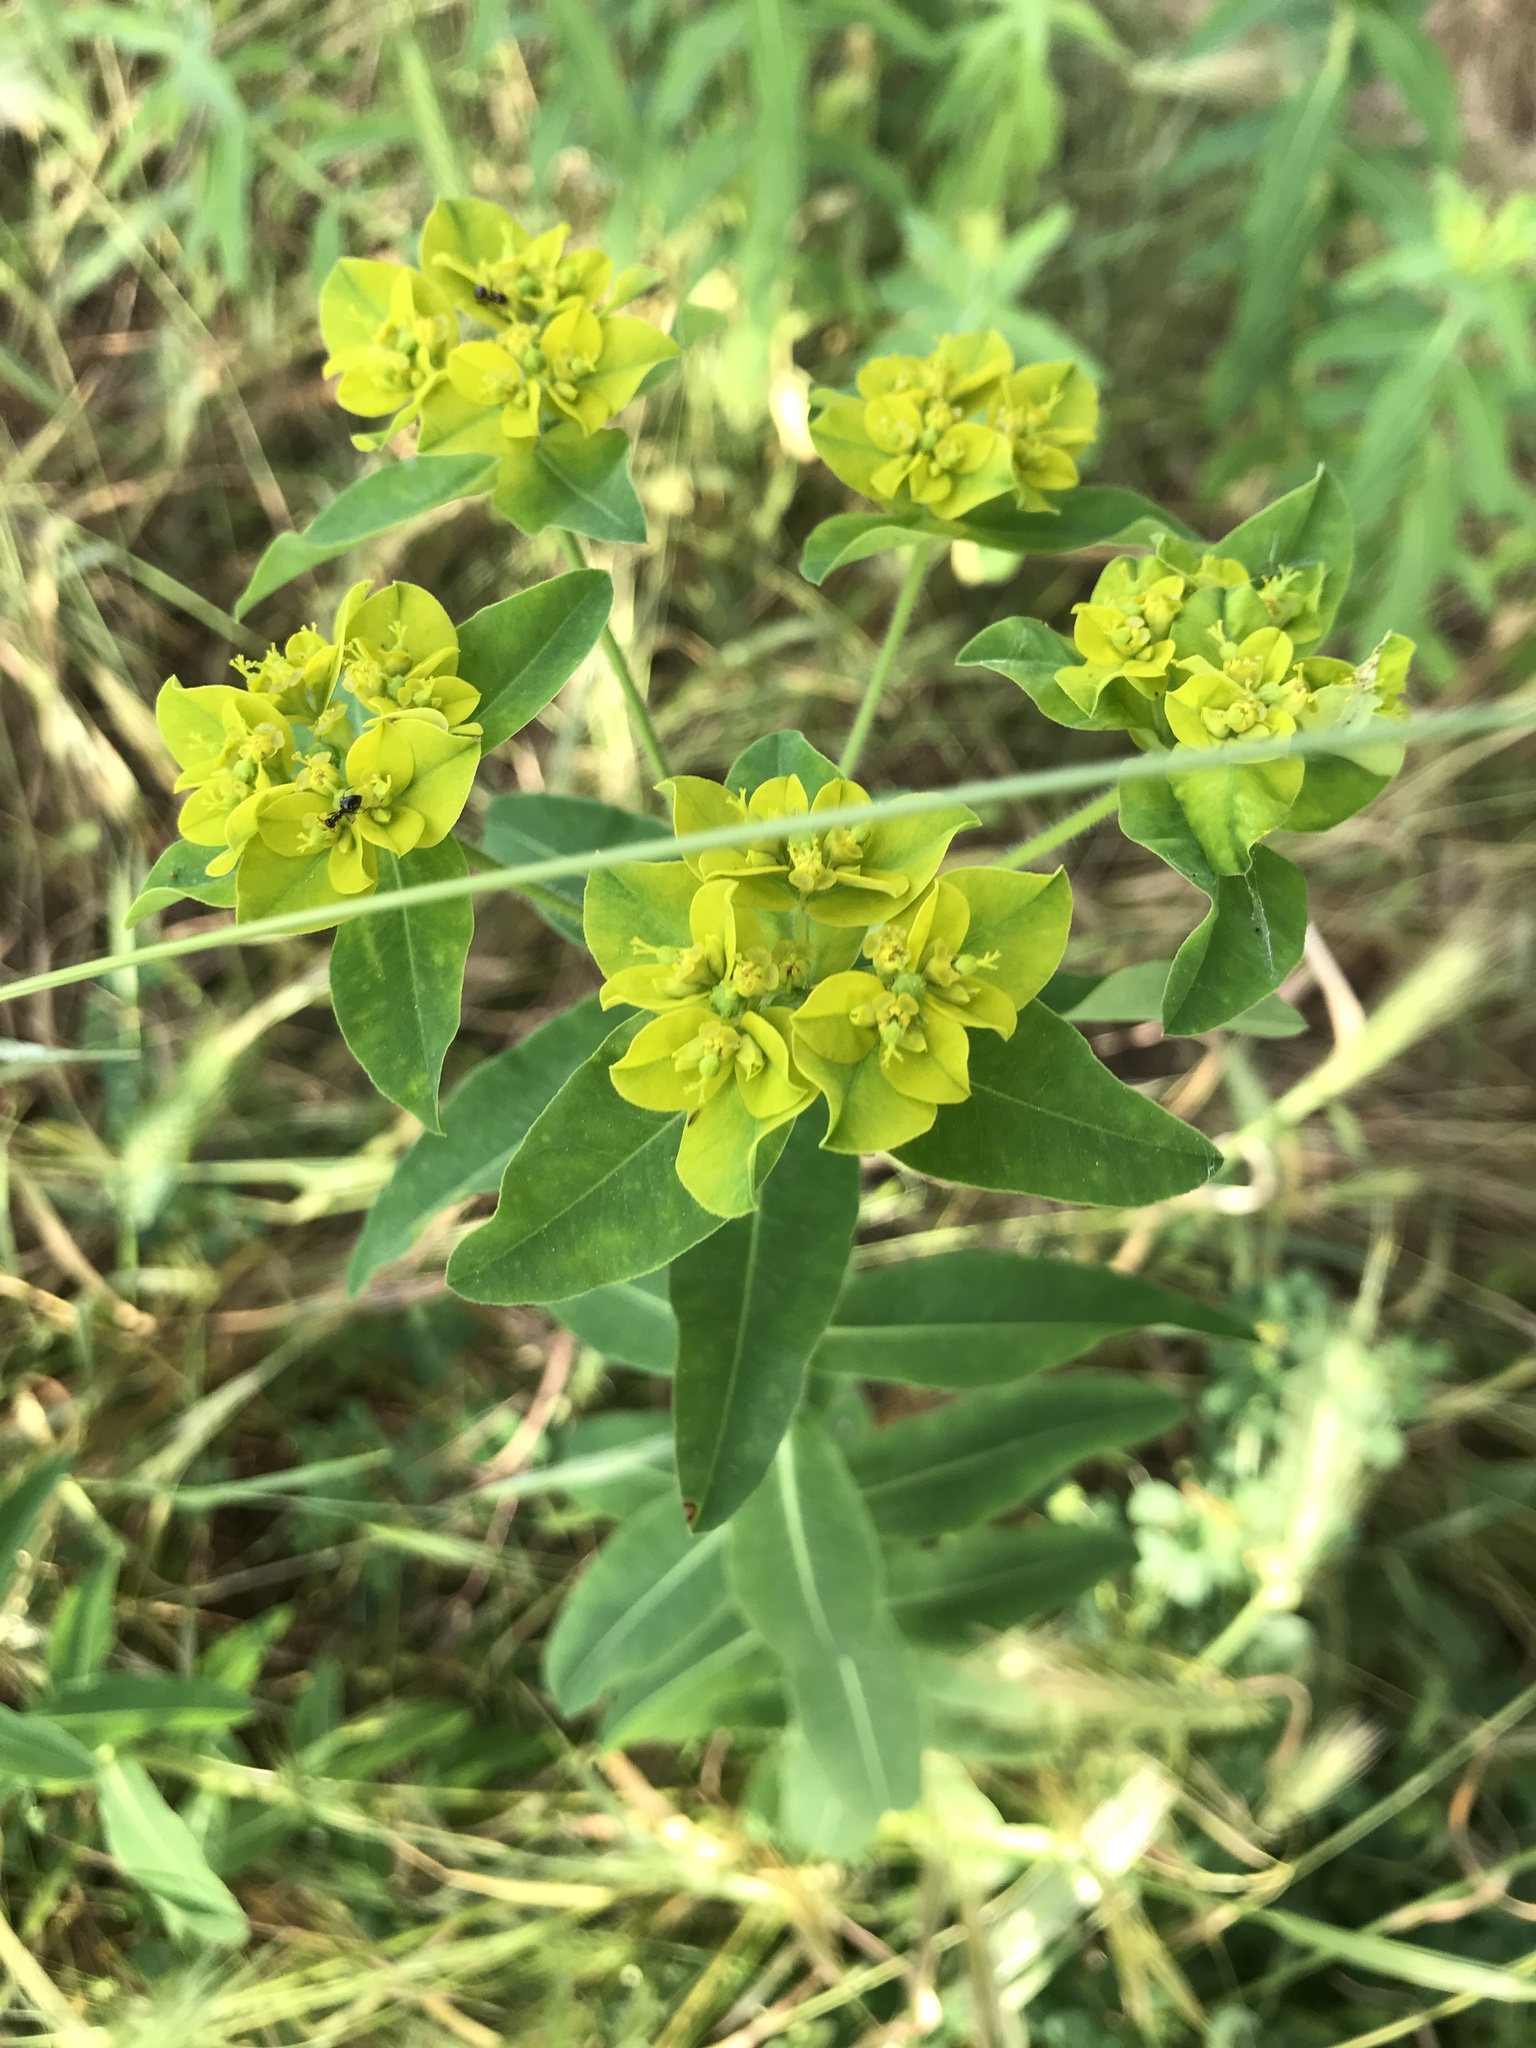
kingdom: Plantae
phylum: Tracheophyta
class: Magnoliopsida
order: Malpighiales
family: Euphorbiaceae
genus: Euphorbia
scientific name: Euphorbia oblongata
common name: Balkan spurge
